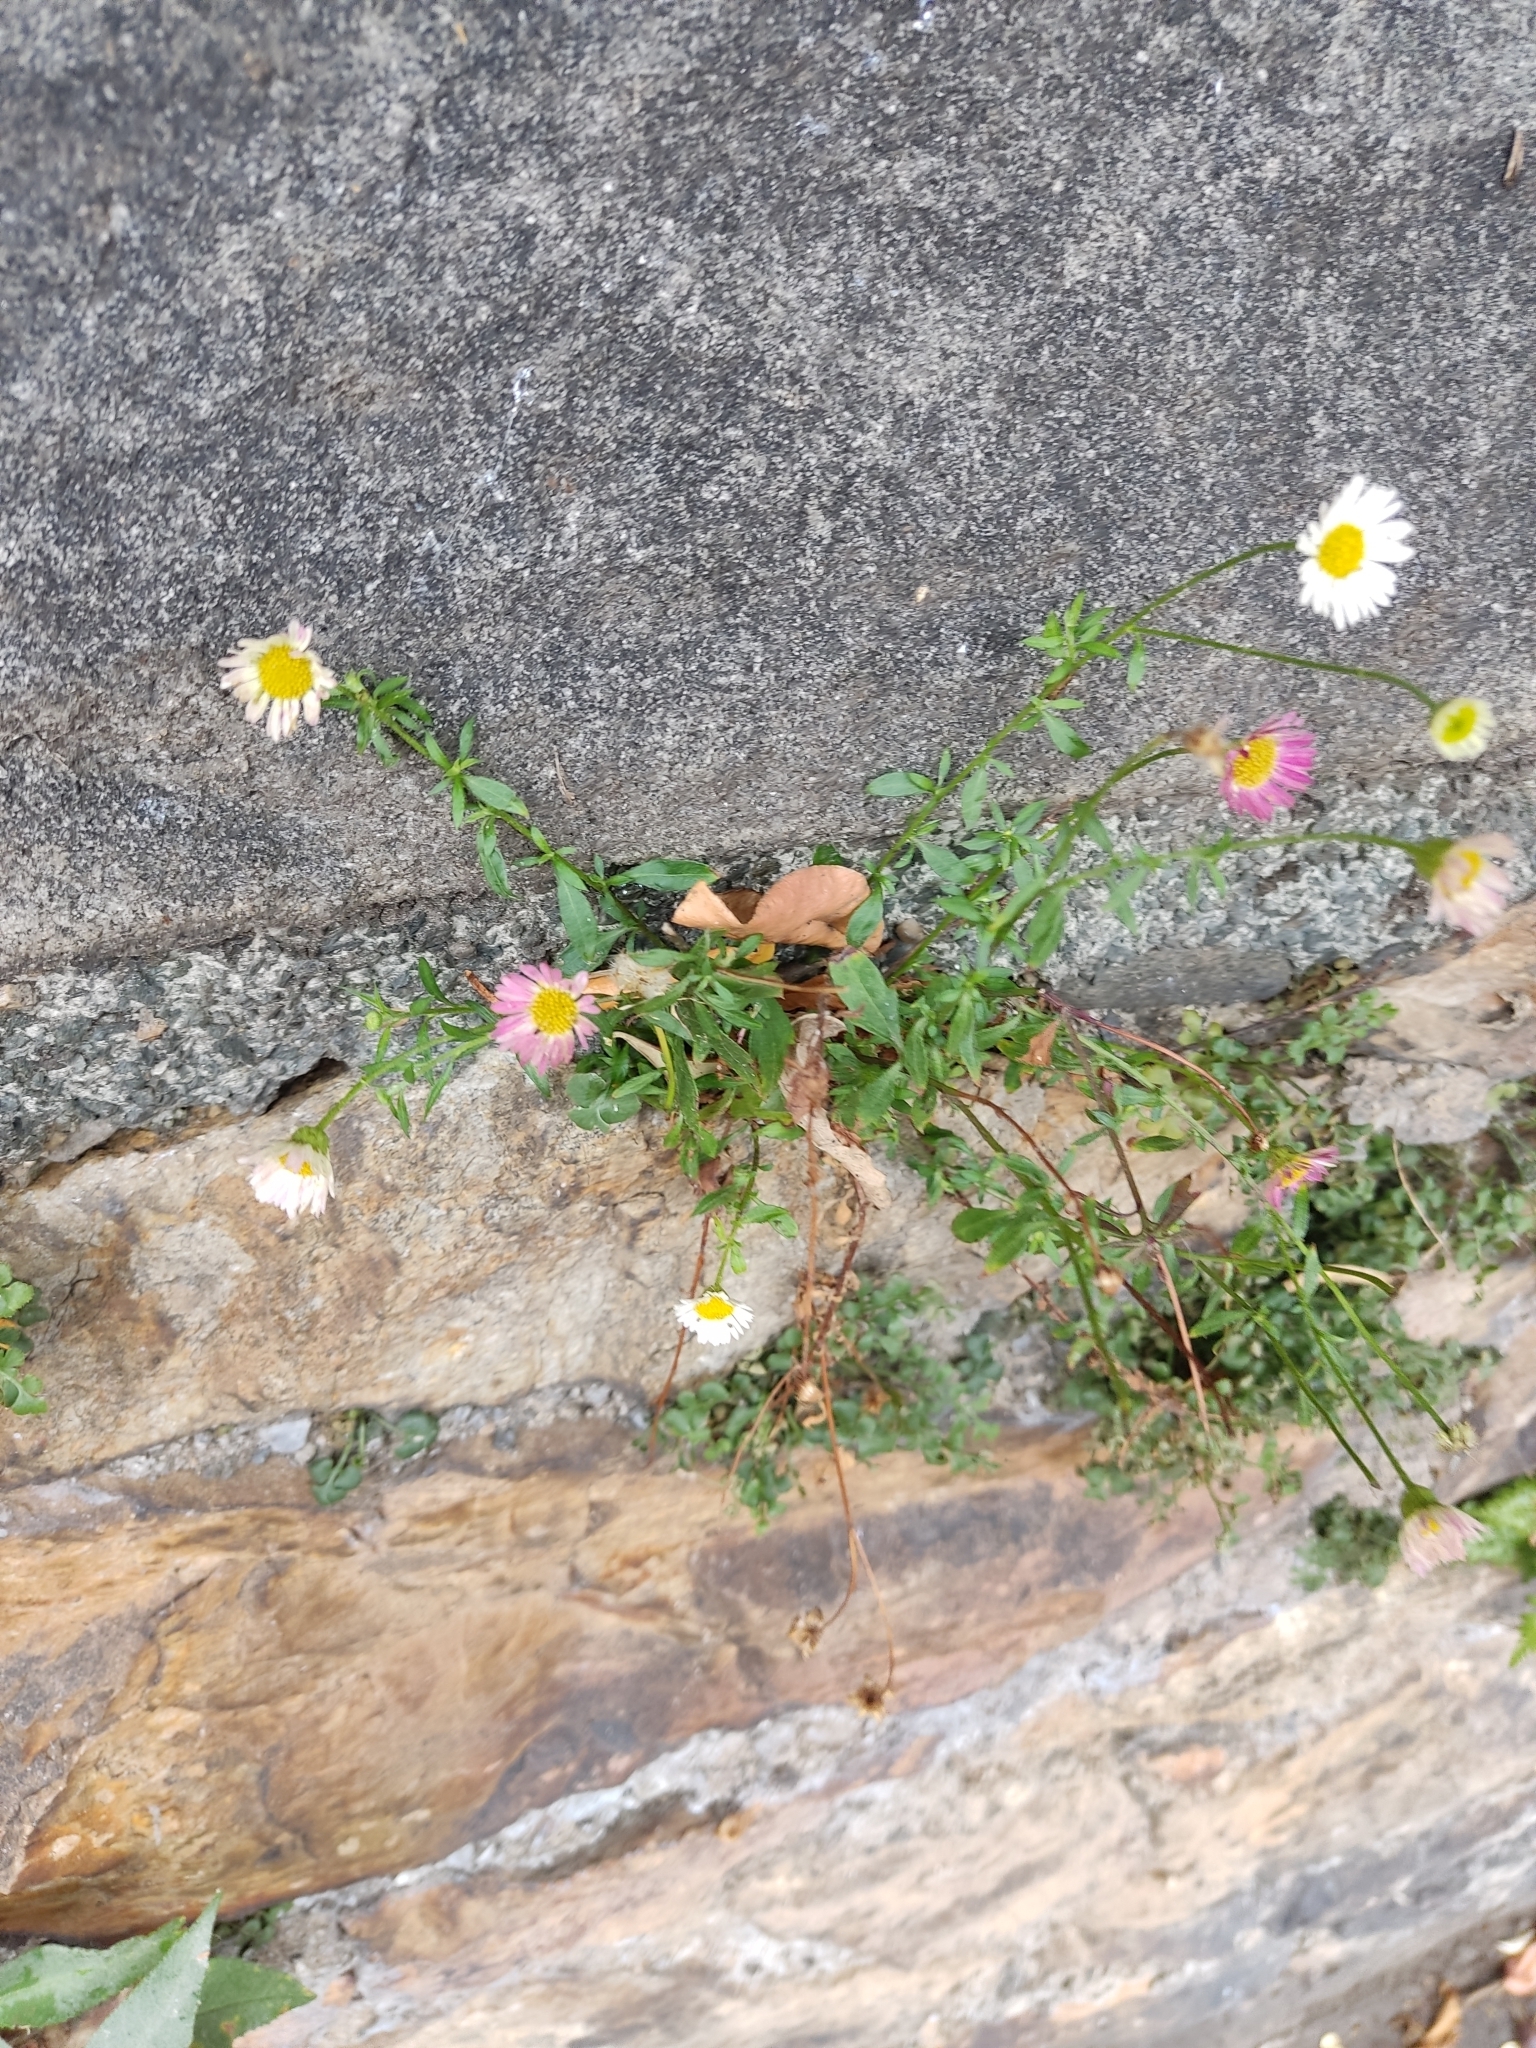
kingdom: Plantae
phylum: Tracheophyta
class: Magnoliopsida
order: Asterales
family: Asteraceae
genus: Erigeron
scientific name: Erigeron karvinskianus
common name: Mexican fleabane
